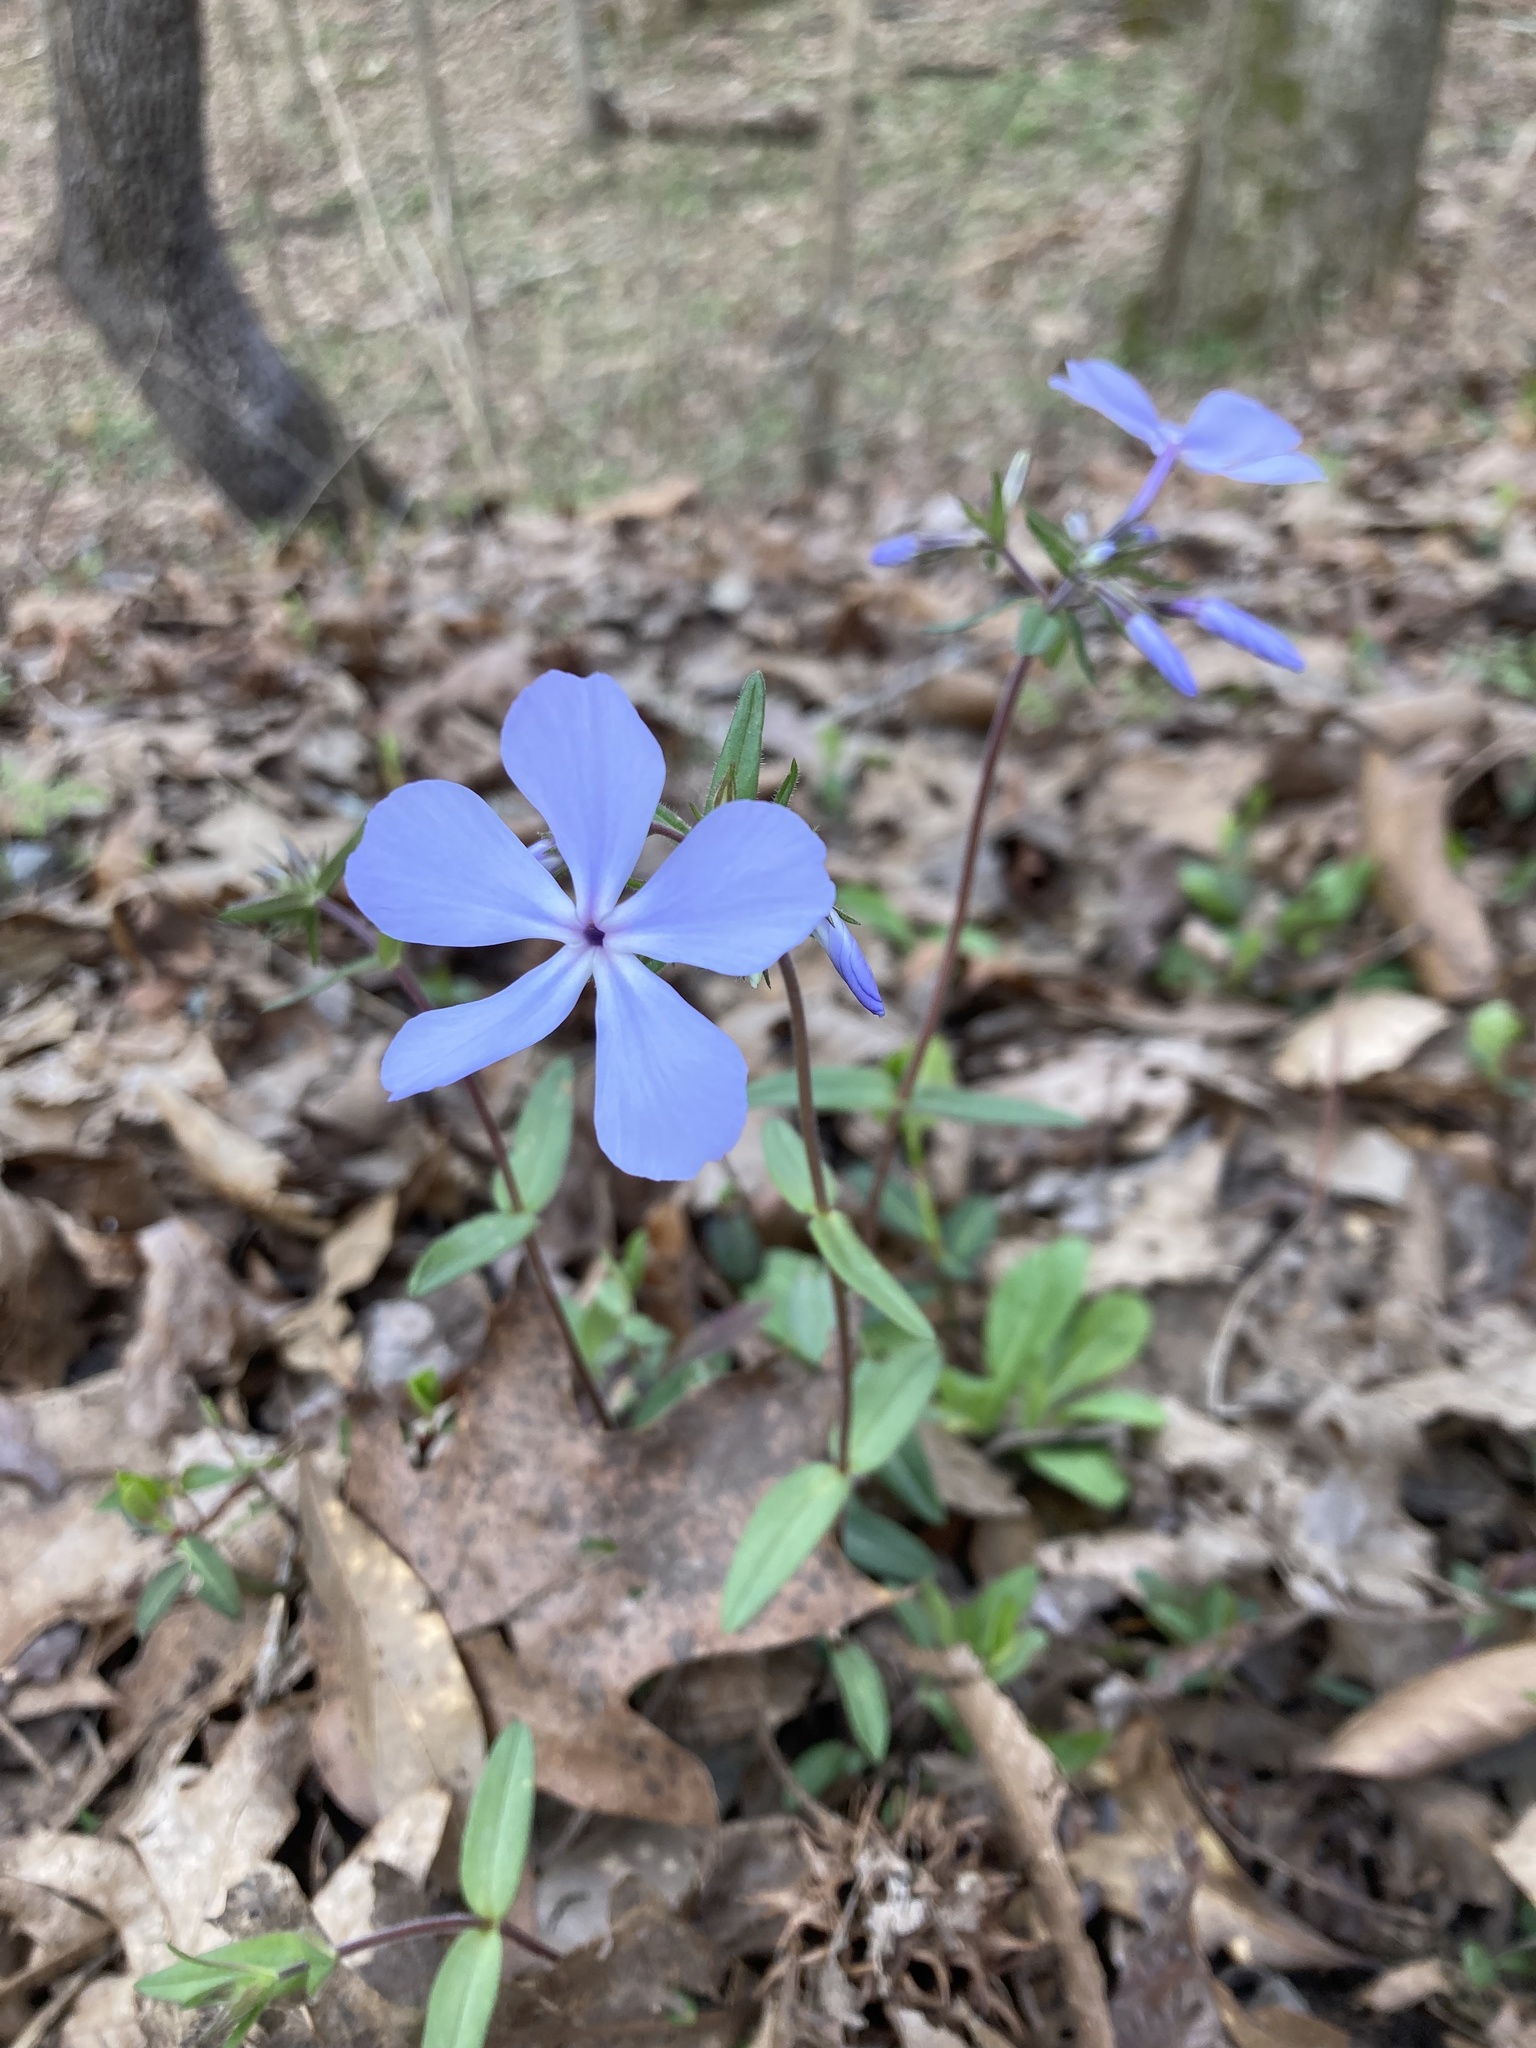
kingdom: Plantae
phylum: Tracheophyta
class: Magnoliopsida
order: Ericales
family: Polemoniaceae
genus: Phlox
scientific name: Phlox divaricata
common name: Blue phlox
